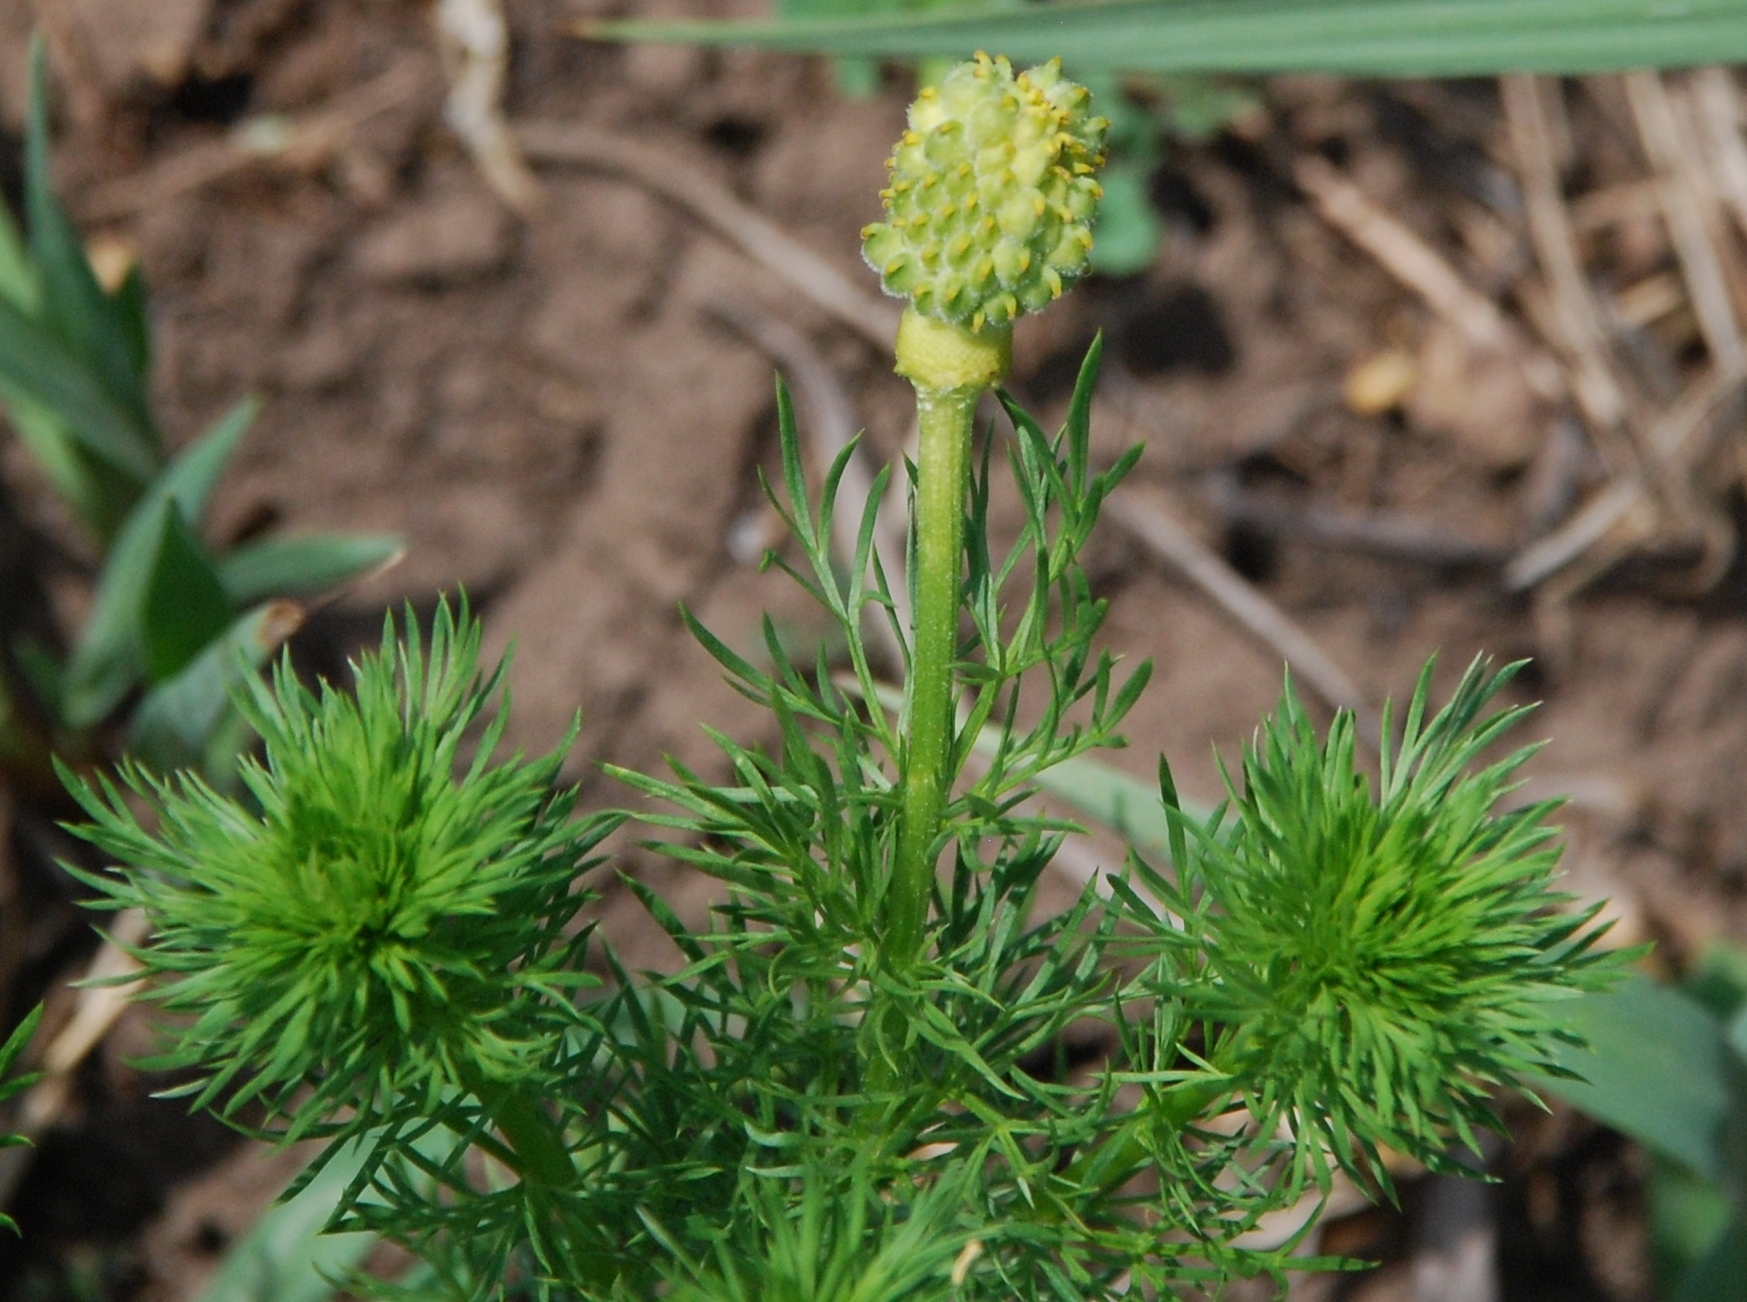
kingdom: Plantae
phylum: Tracheophyta
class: Magnoliopsida
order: Ranunculales
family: Ranunculaceae
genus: Adonis
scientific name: Adonis vernalis
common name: Yellow pheasants-eye
